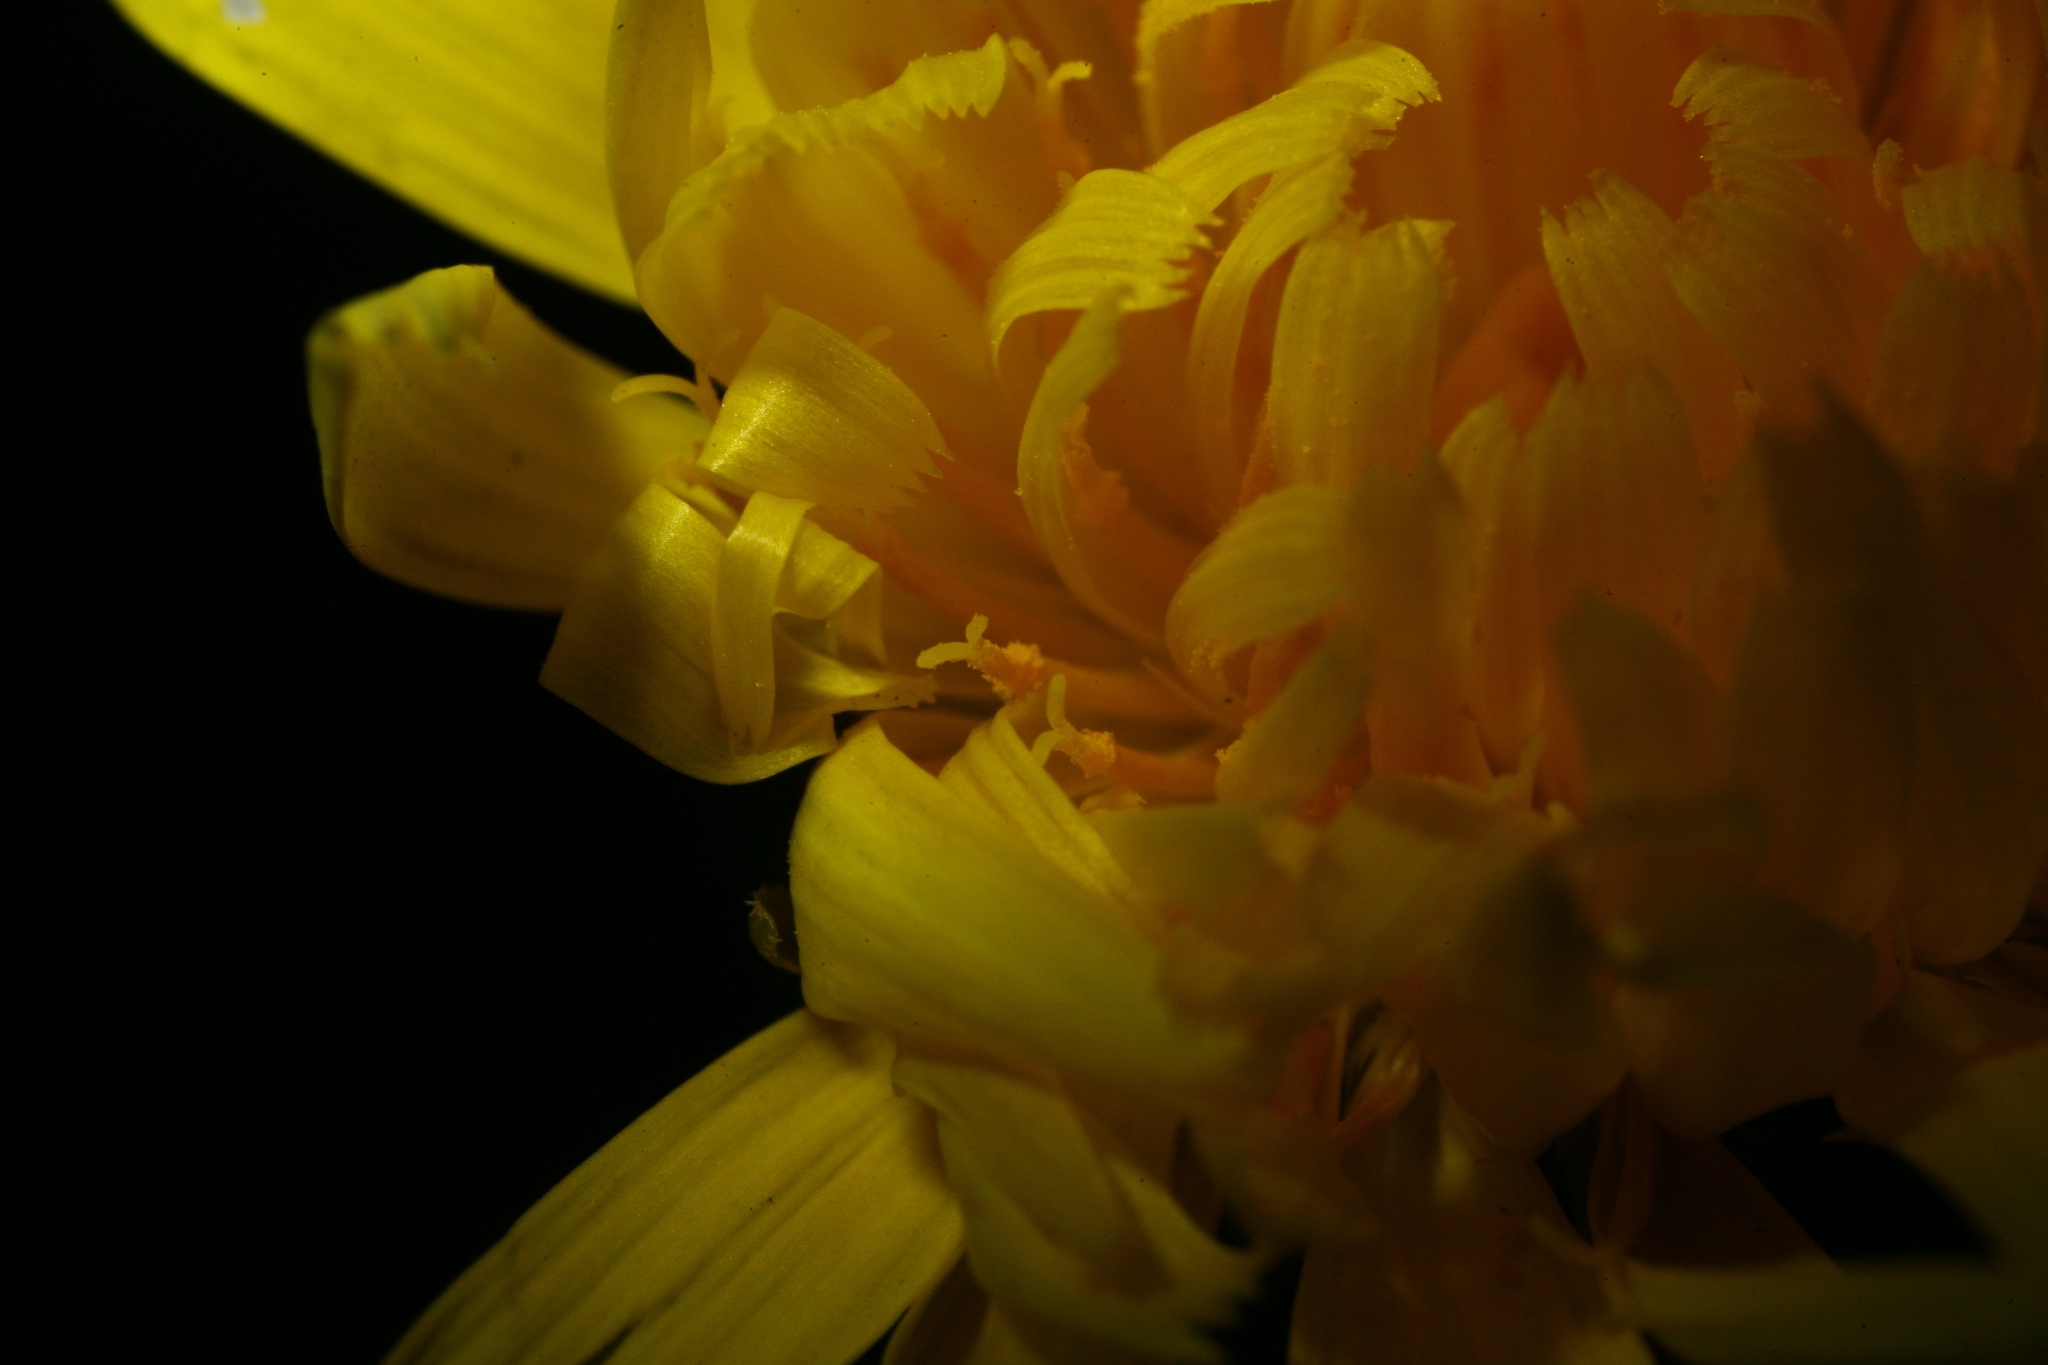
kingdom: Plantae
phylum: Tracheophyta
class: Magnoliopsida
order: Asterales
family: Asteraceae
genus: Hypochaeris
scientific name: Hypochaeris radicata
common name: Flatweed
